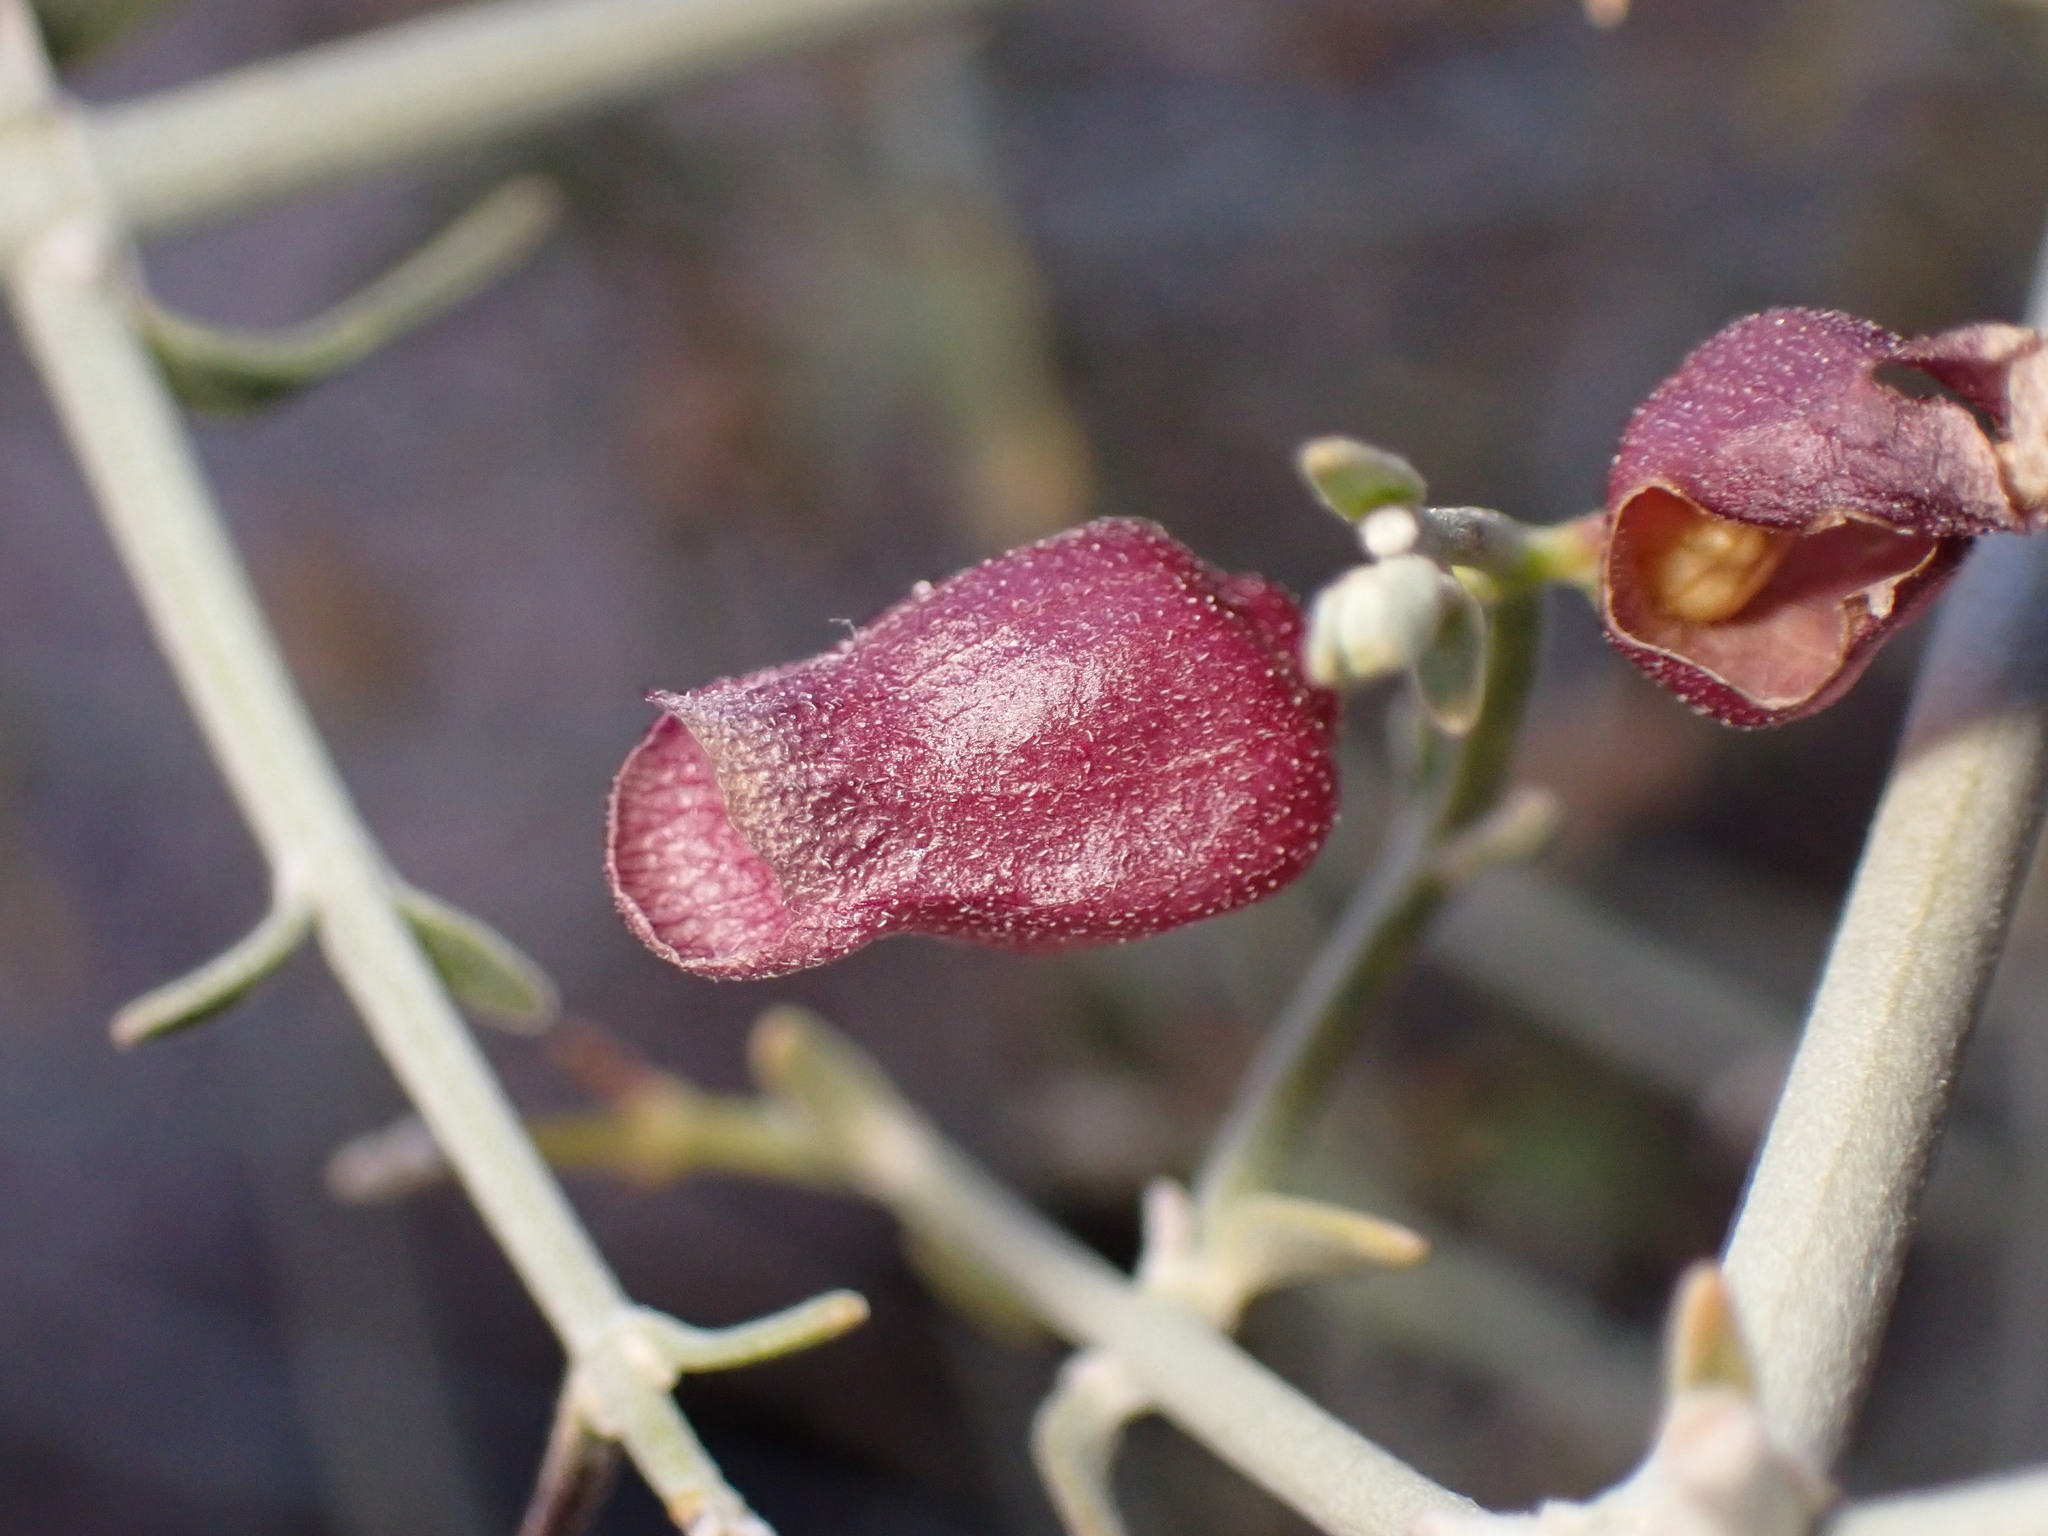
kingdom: Plantae
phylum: Tracheophyta
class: Magnoliopsida
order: Lamiales
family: Lamiaceae
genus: Scutellaria
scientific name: Scutellaria mexicana
